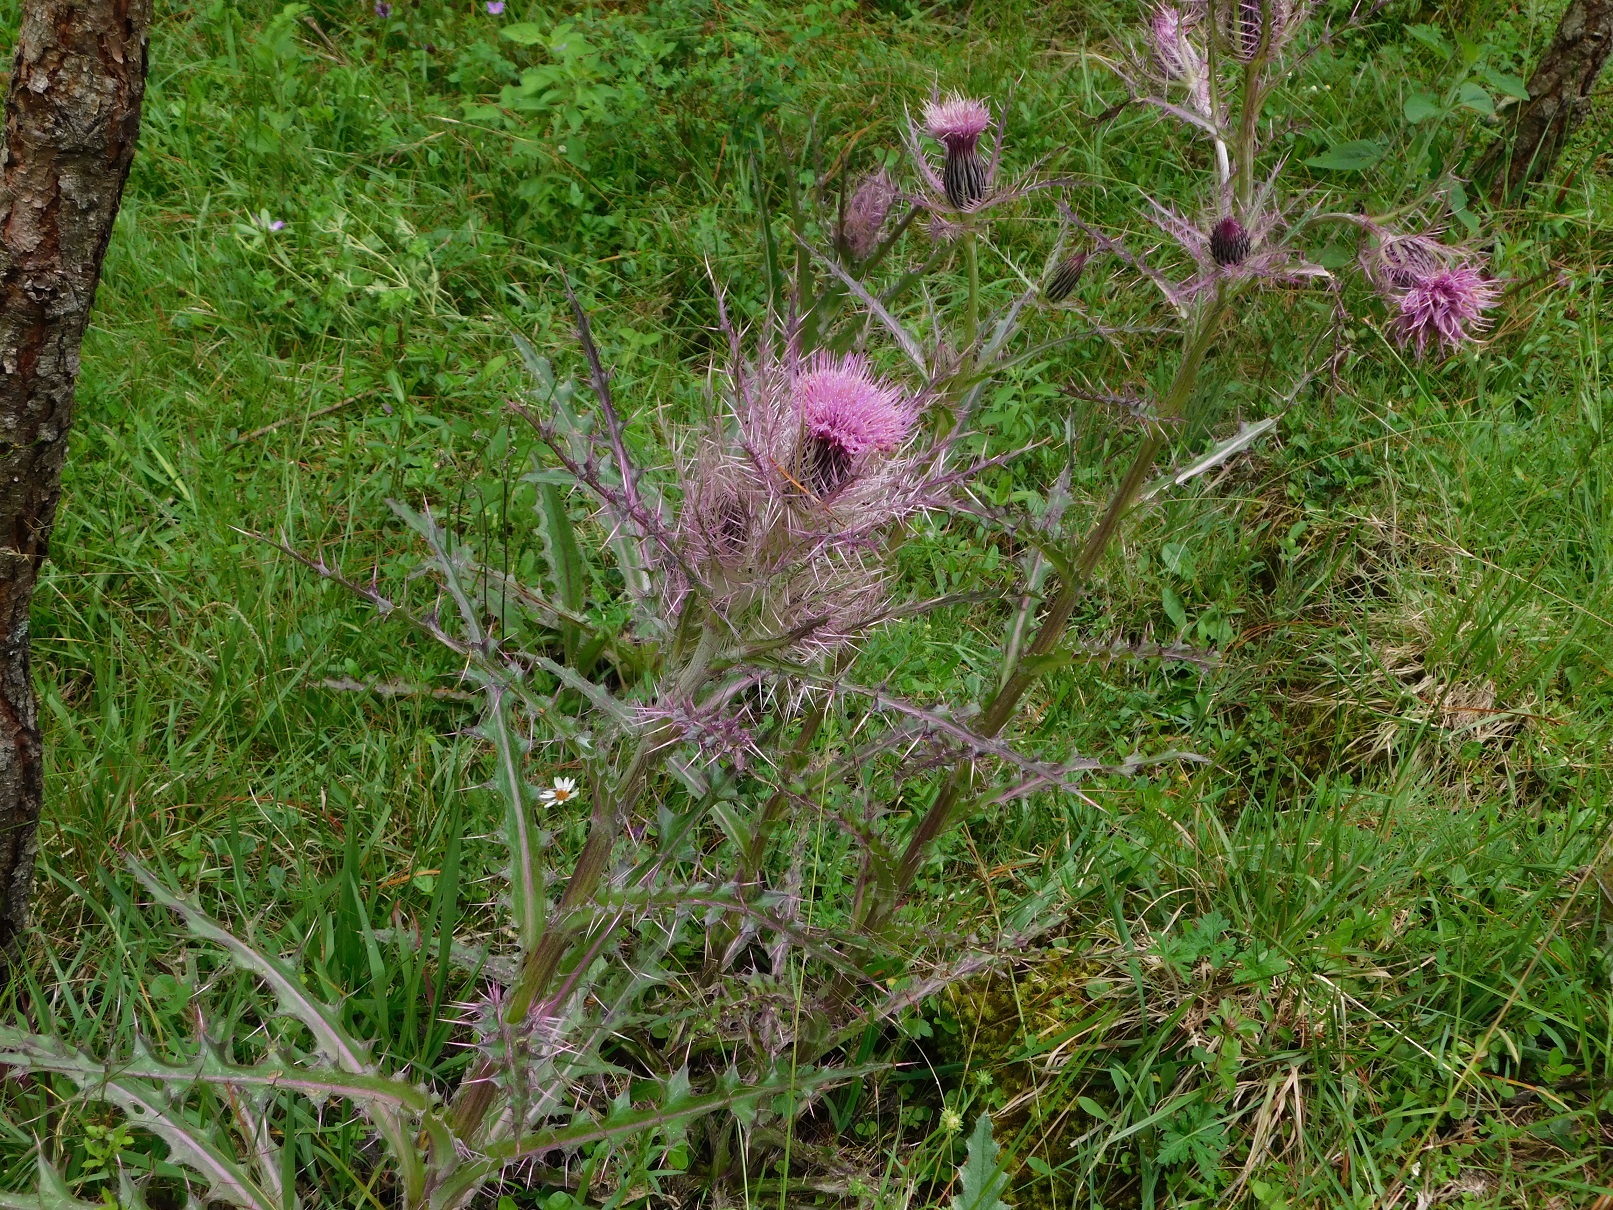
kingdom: Plantae
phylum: Tracheophyta
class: Magnoliopsida
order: Asterales
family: Asteraceae
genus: Cirsium
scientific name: Cirsium horridulum
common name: Bristly thistle
